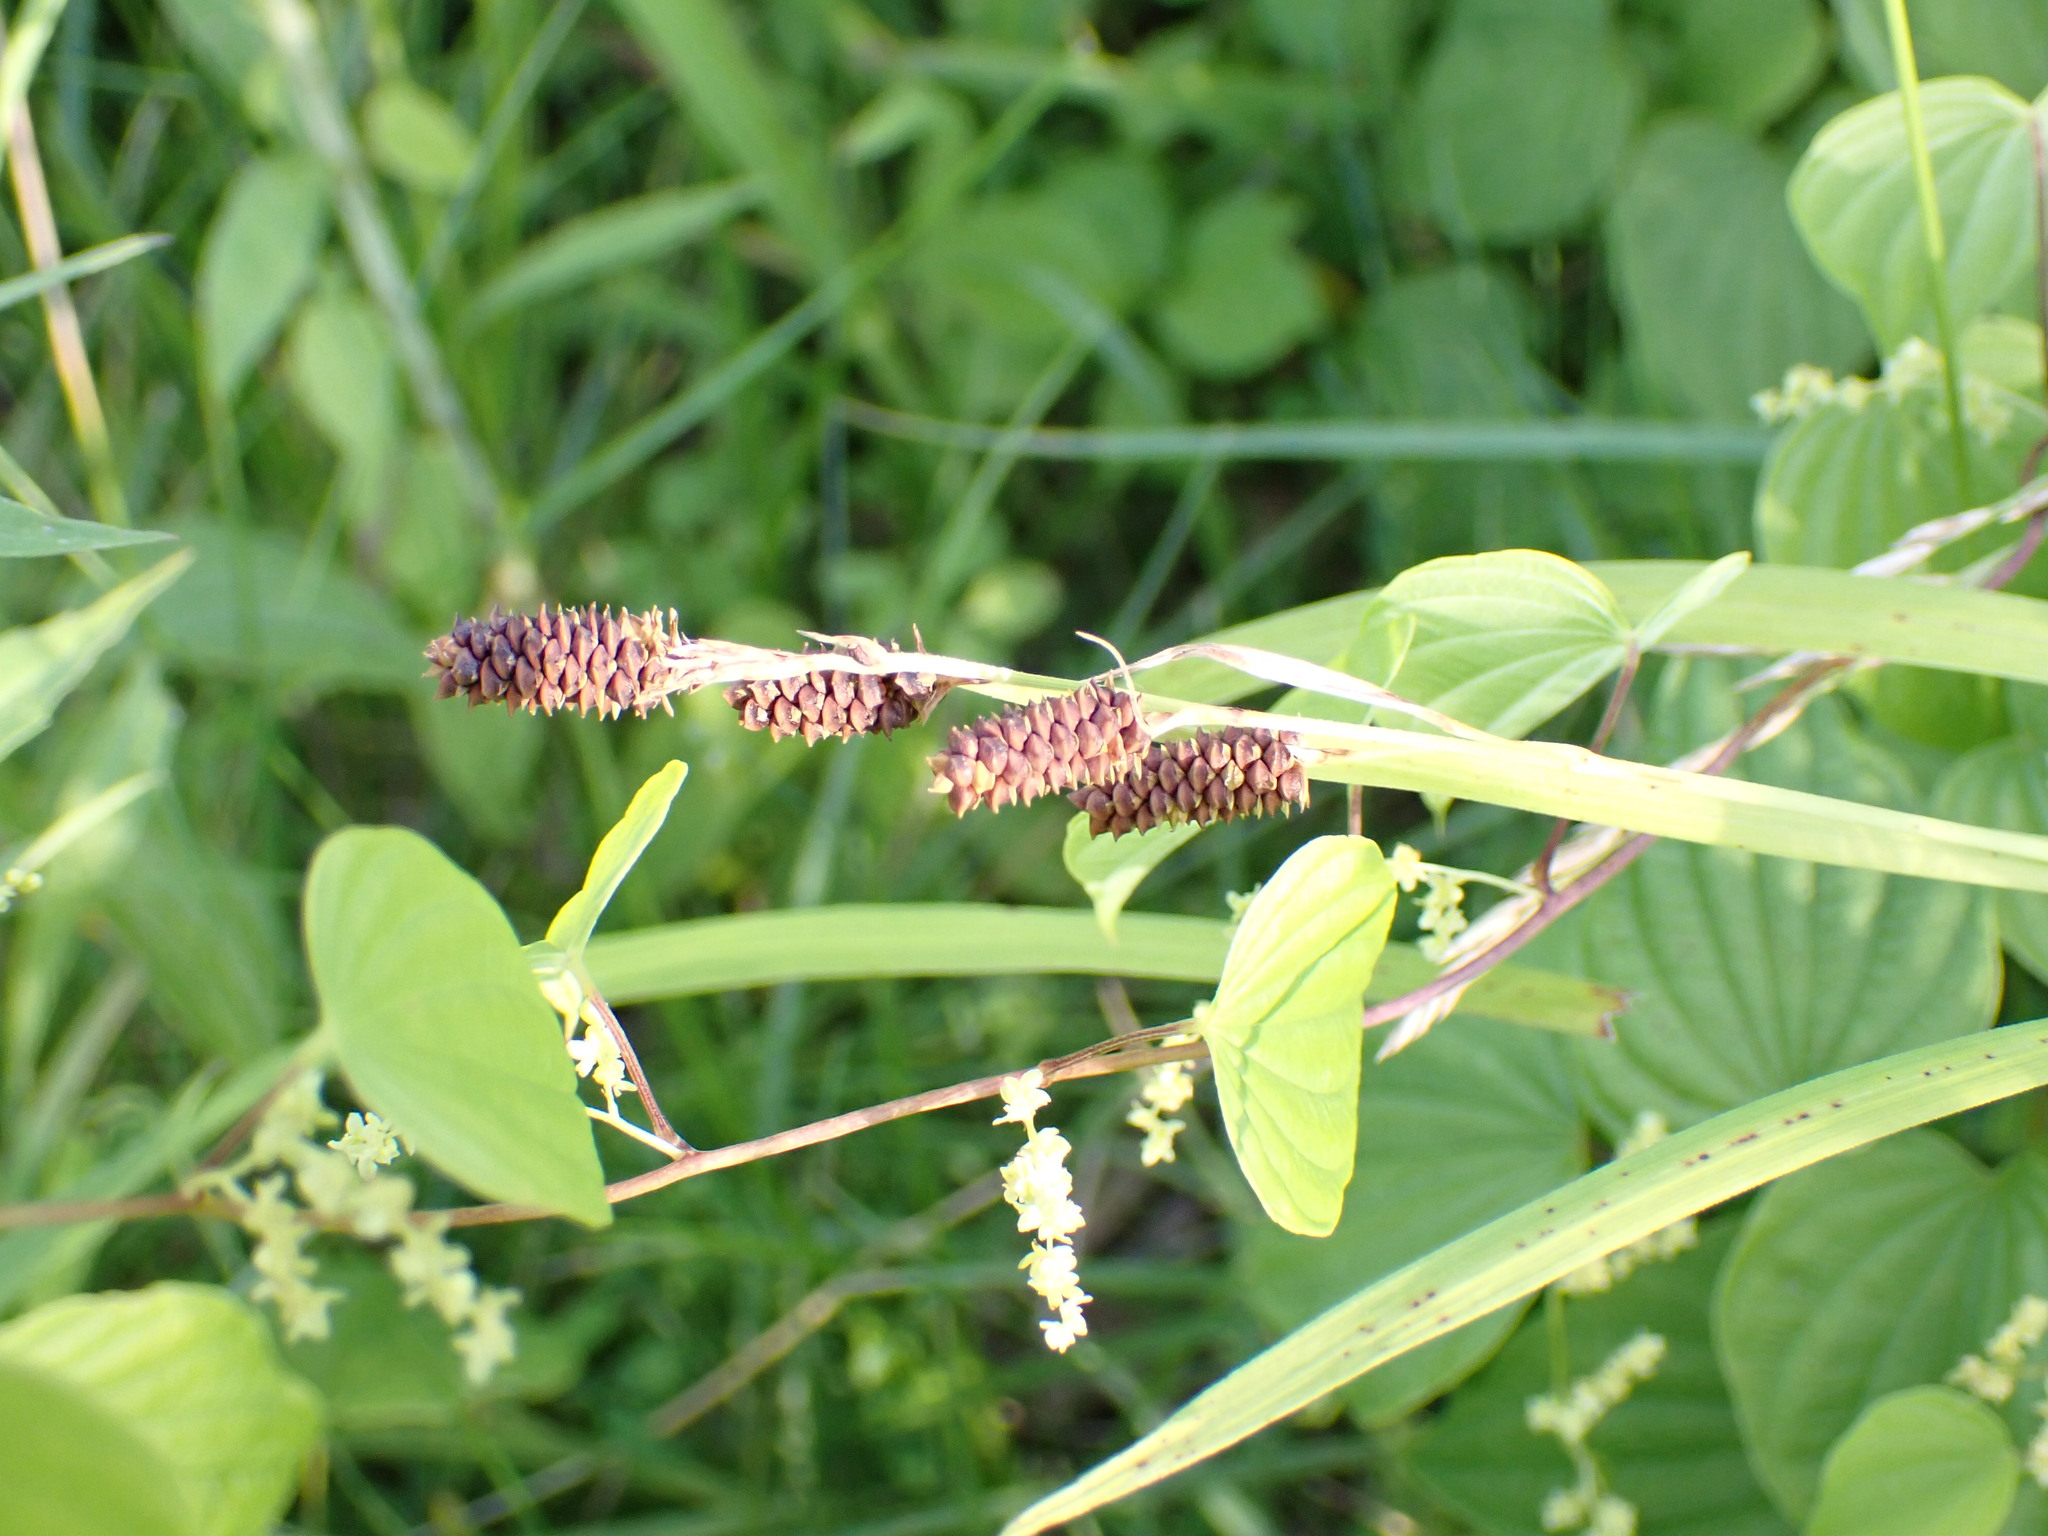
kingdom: Plantae
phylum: Tracheophyta
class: Liliopsida
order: Poales
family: Cyperaceae
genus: Carex
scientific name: Carex shortiana
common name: Short's sedge
